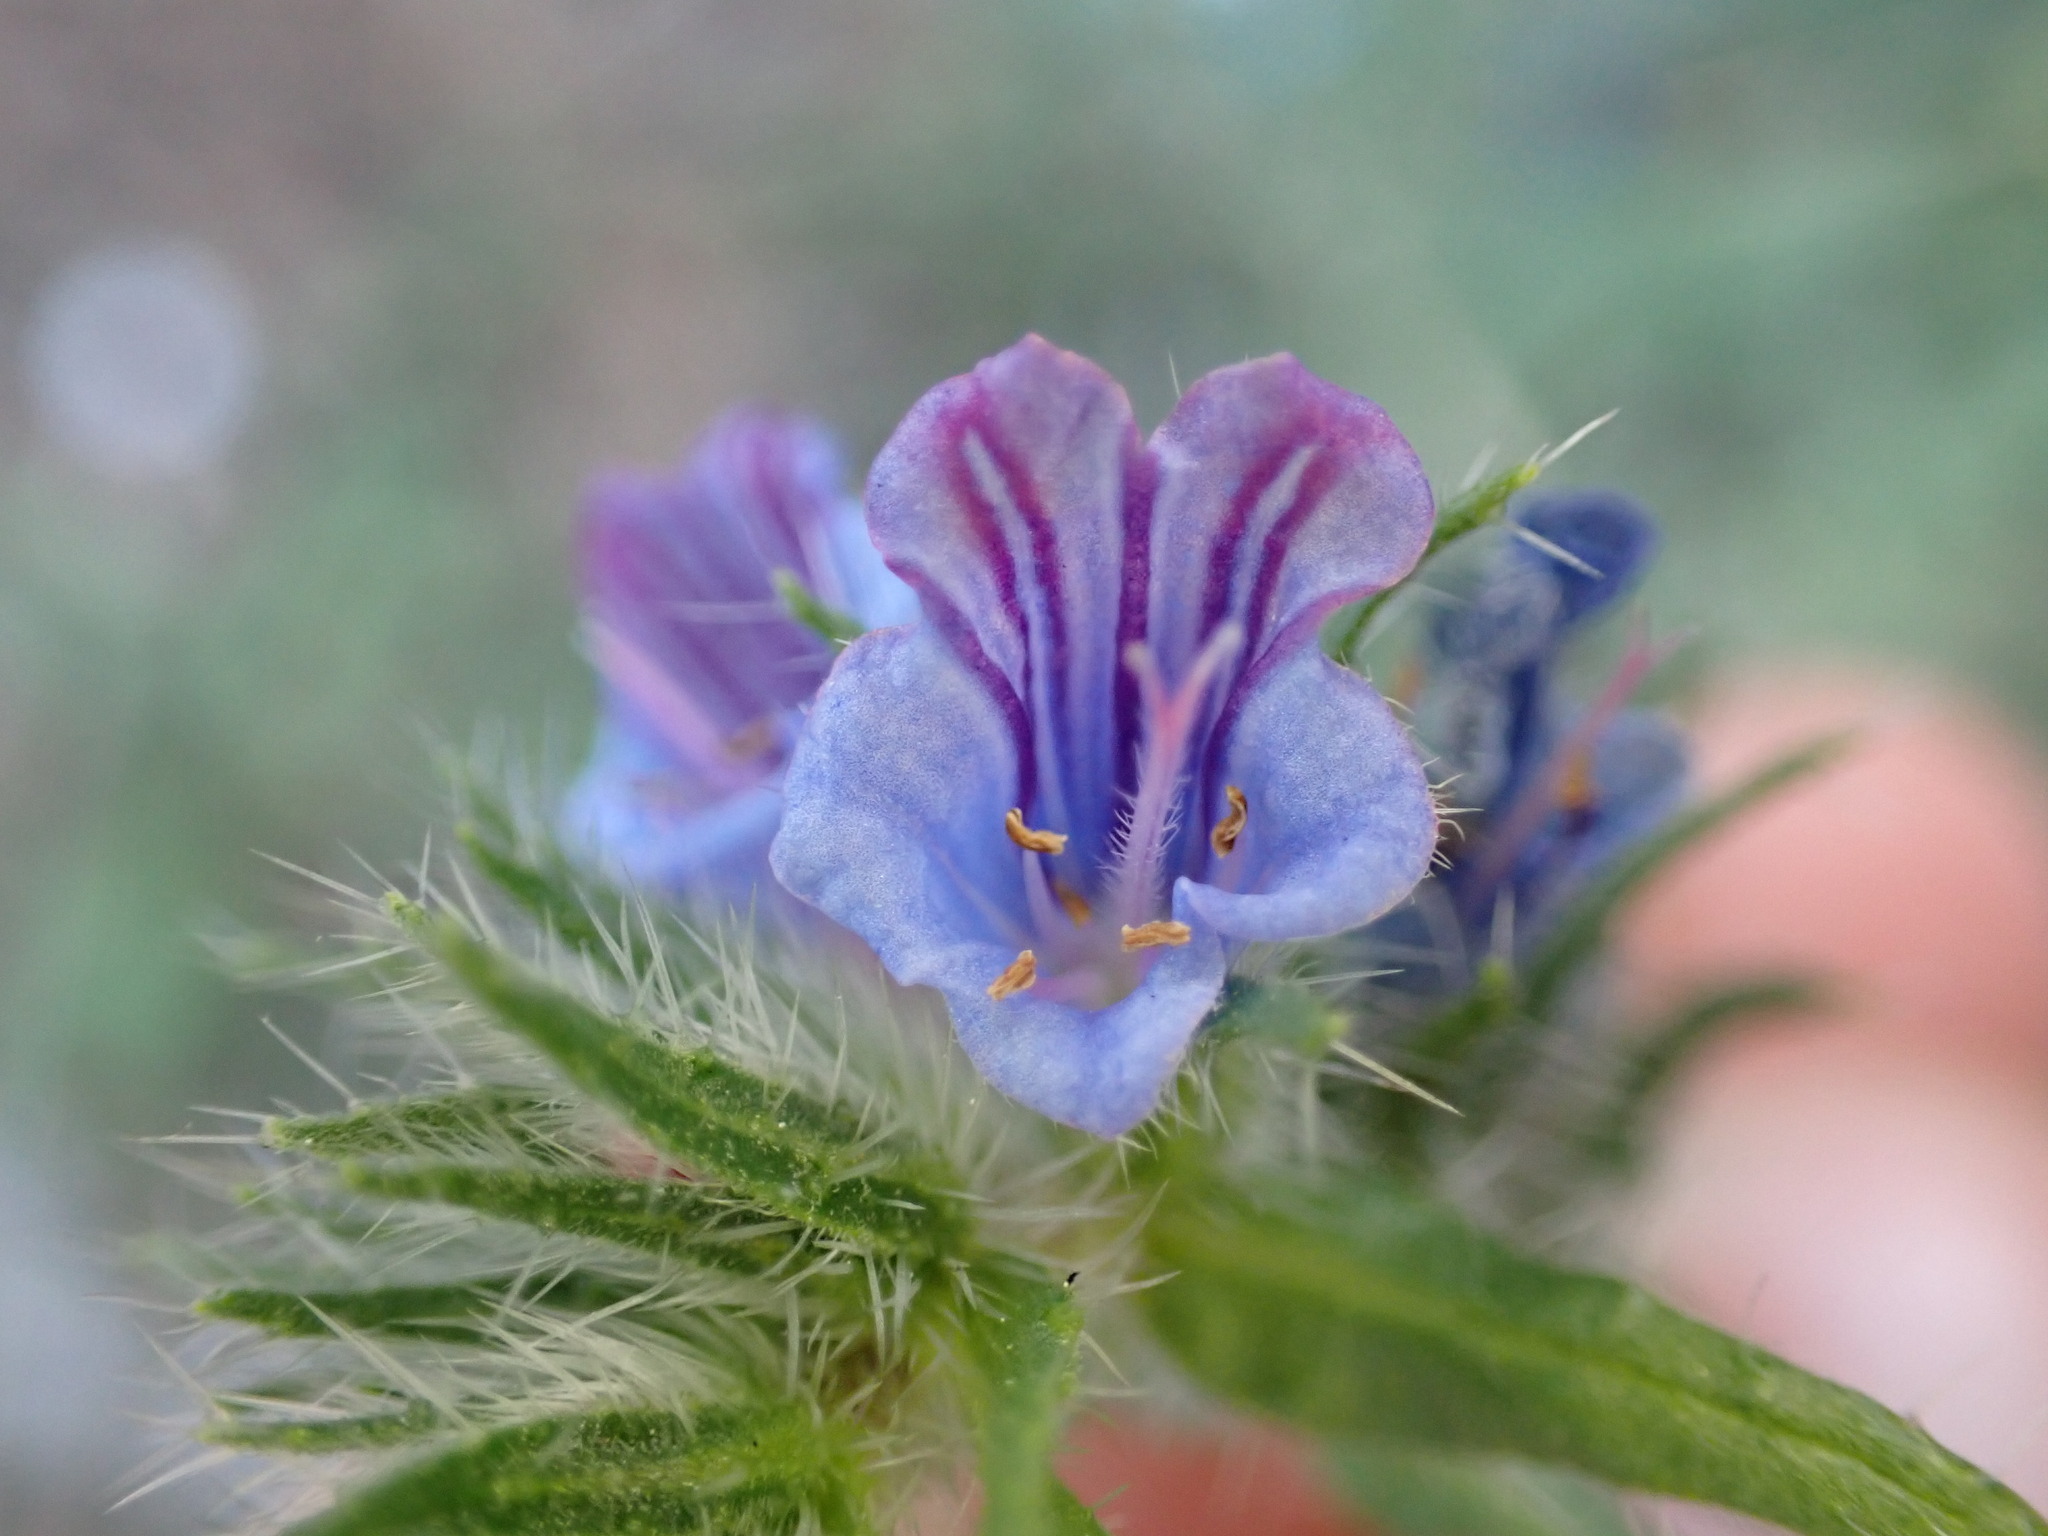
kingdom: Plantae
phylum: Tracheophyta
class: Magnoliopsida
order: Boraginales
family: Boraginaceae
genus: Echium
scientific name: Echium vulgare
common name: Common viper's bugloss
